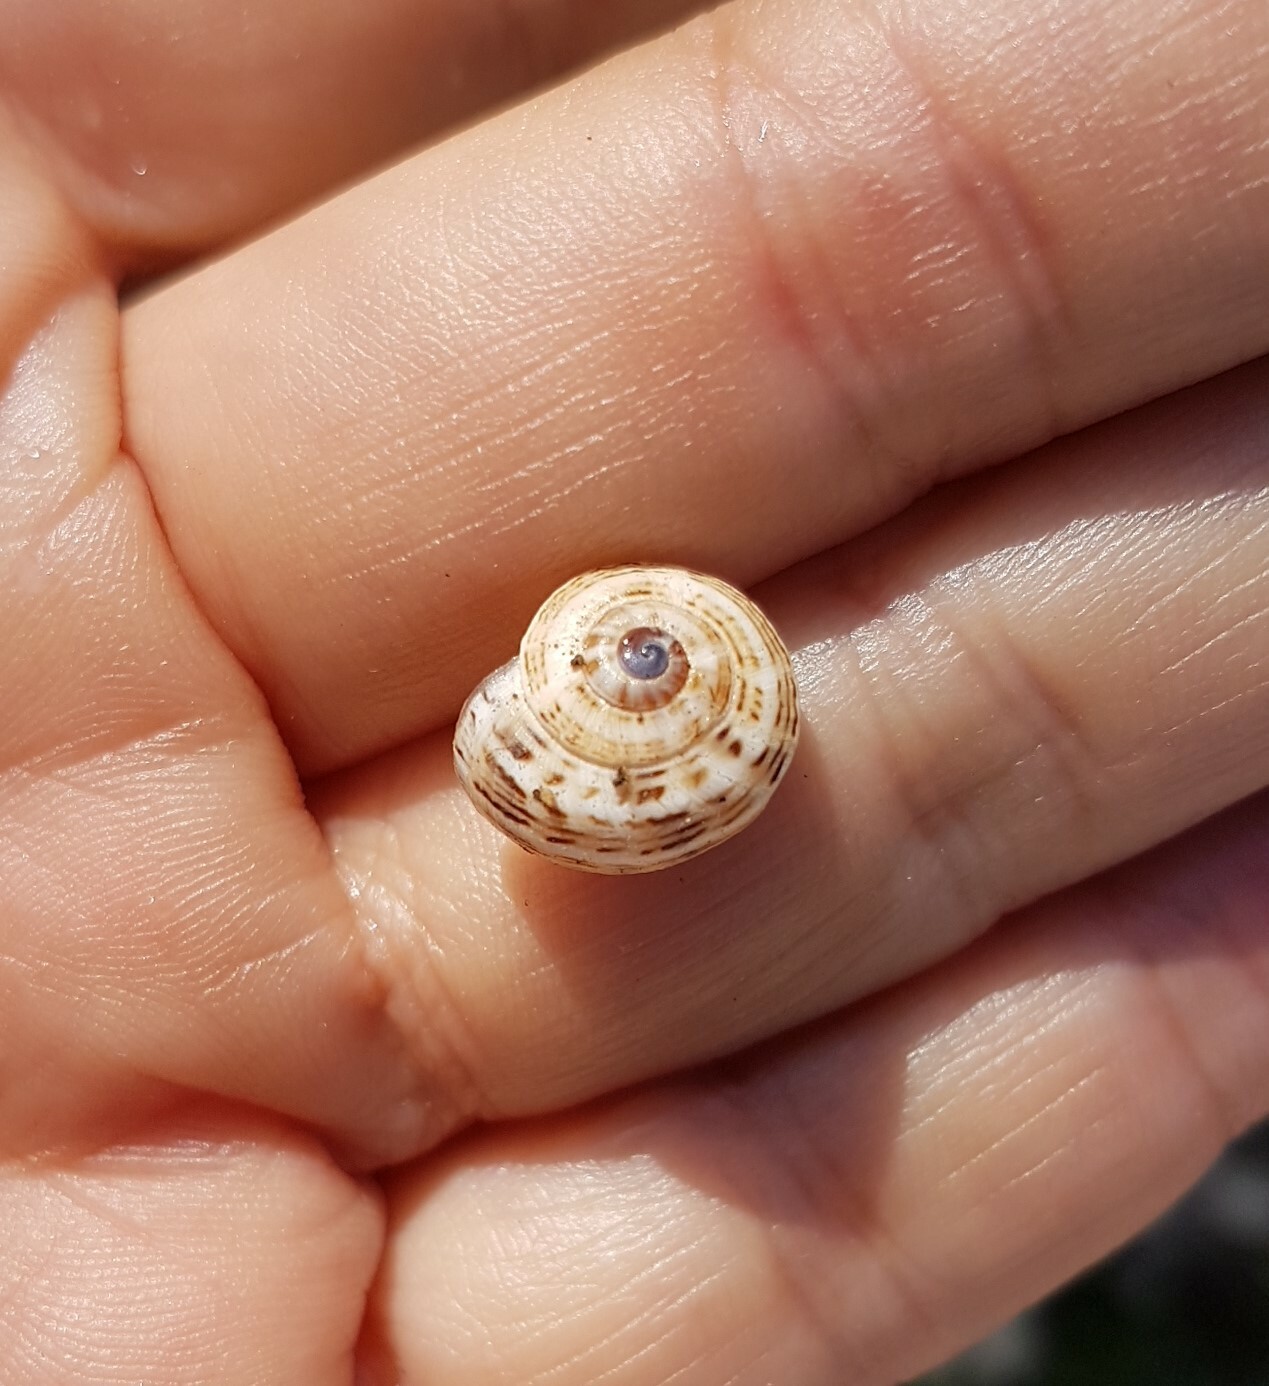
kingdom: Animalia
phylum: Mollusca
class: Gastropoda
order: Stylommatophora
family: Helicidae
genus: Theba
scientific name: Theba pisana
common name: White snail
